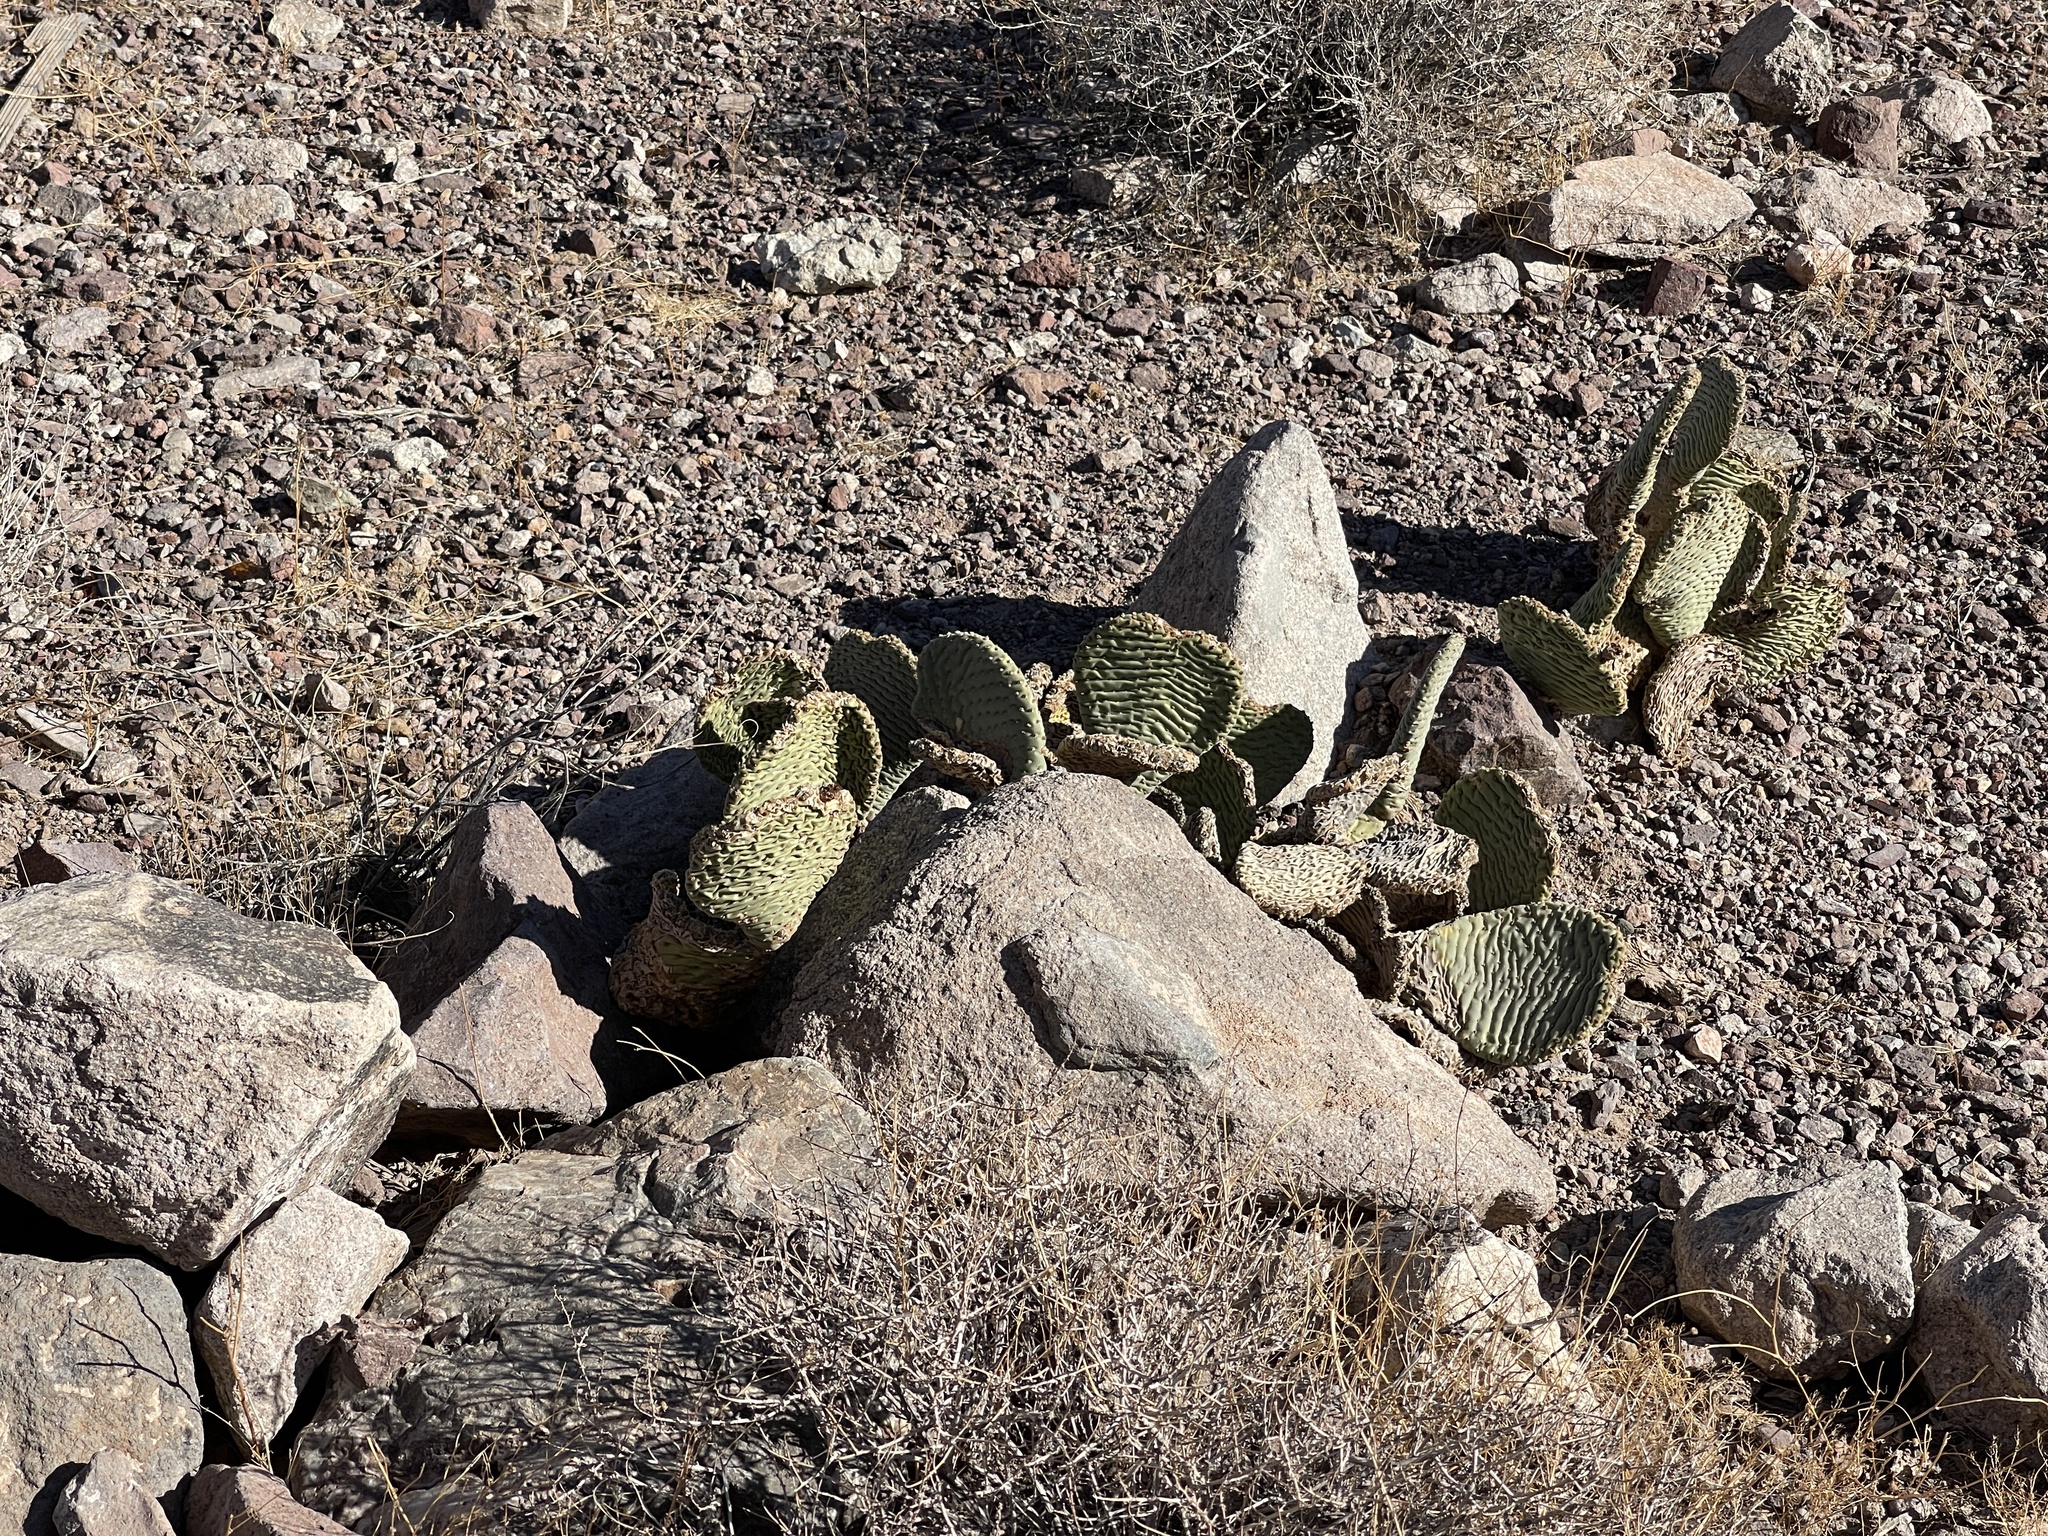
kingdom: Plantae
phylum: Tracheophyta
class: Magnoliopsida
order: Caryophyllales
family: Cactaceae
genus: Opuntia
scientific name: Opuntia basilaris
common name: Beavertail prickly-pear
